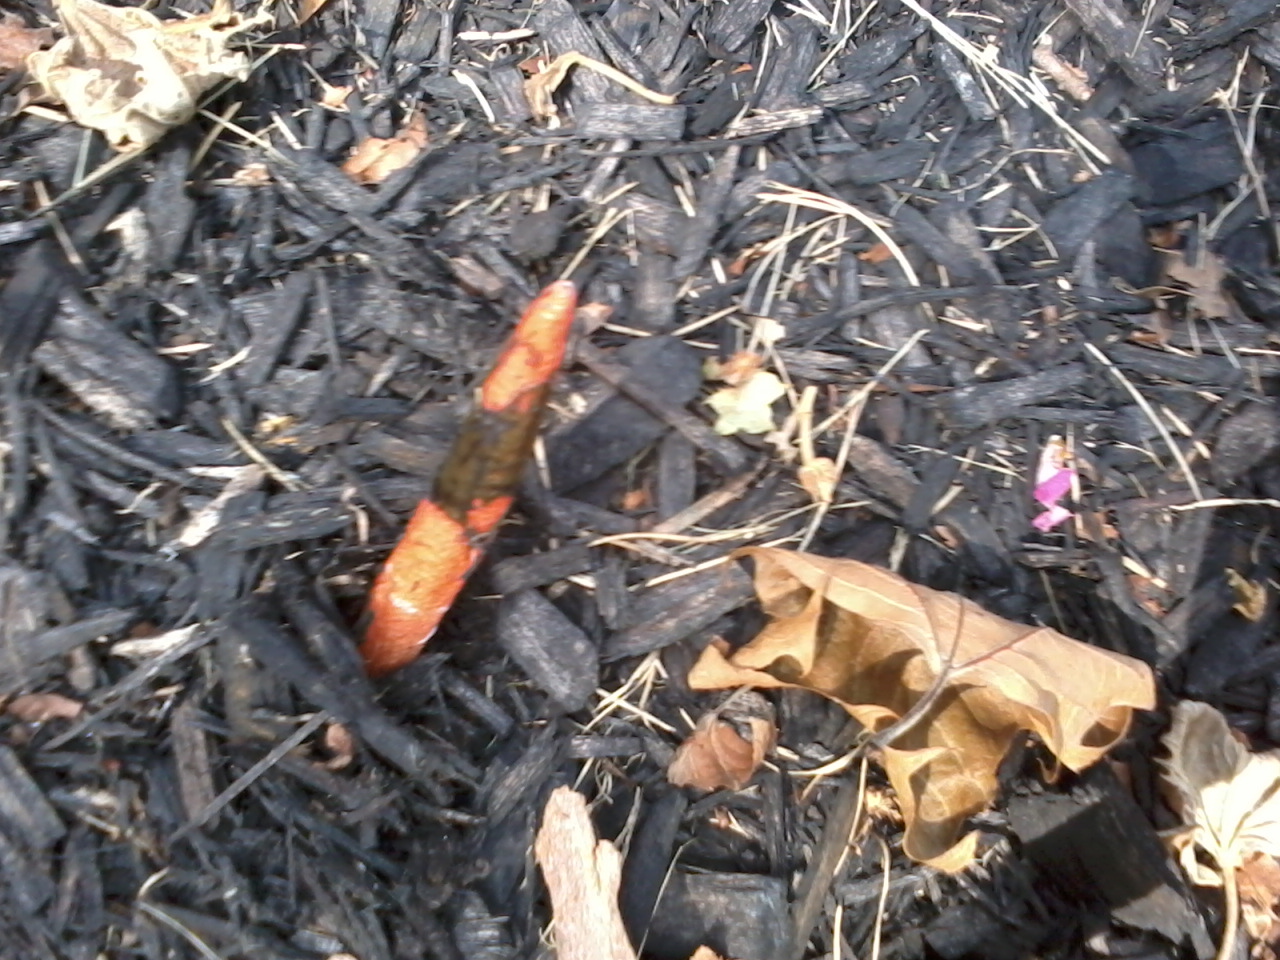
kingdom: Fungi
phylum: Basidiomycota
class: Agaricomycetes
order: Phallales
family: Phallaceae
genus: Mutinus
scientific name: Mutinus elegans
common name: Devil's dipstick
